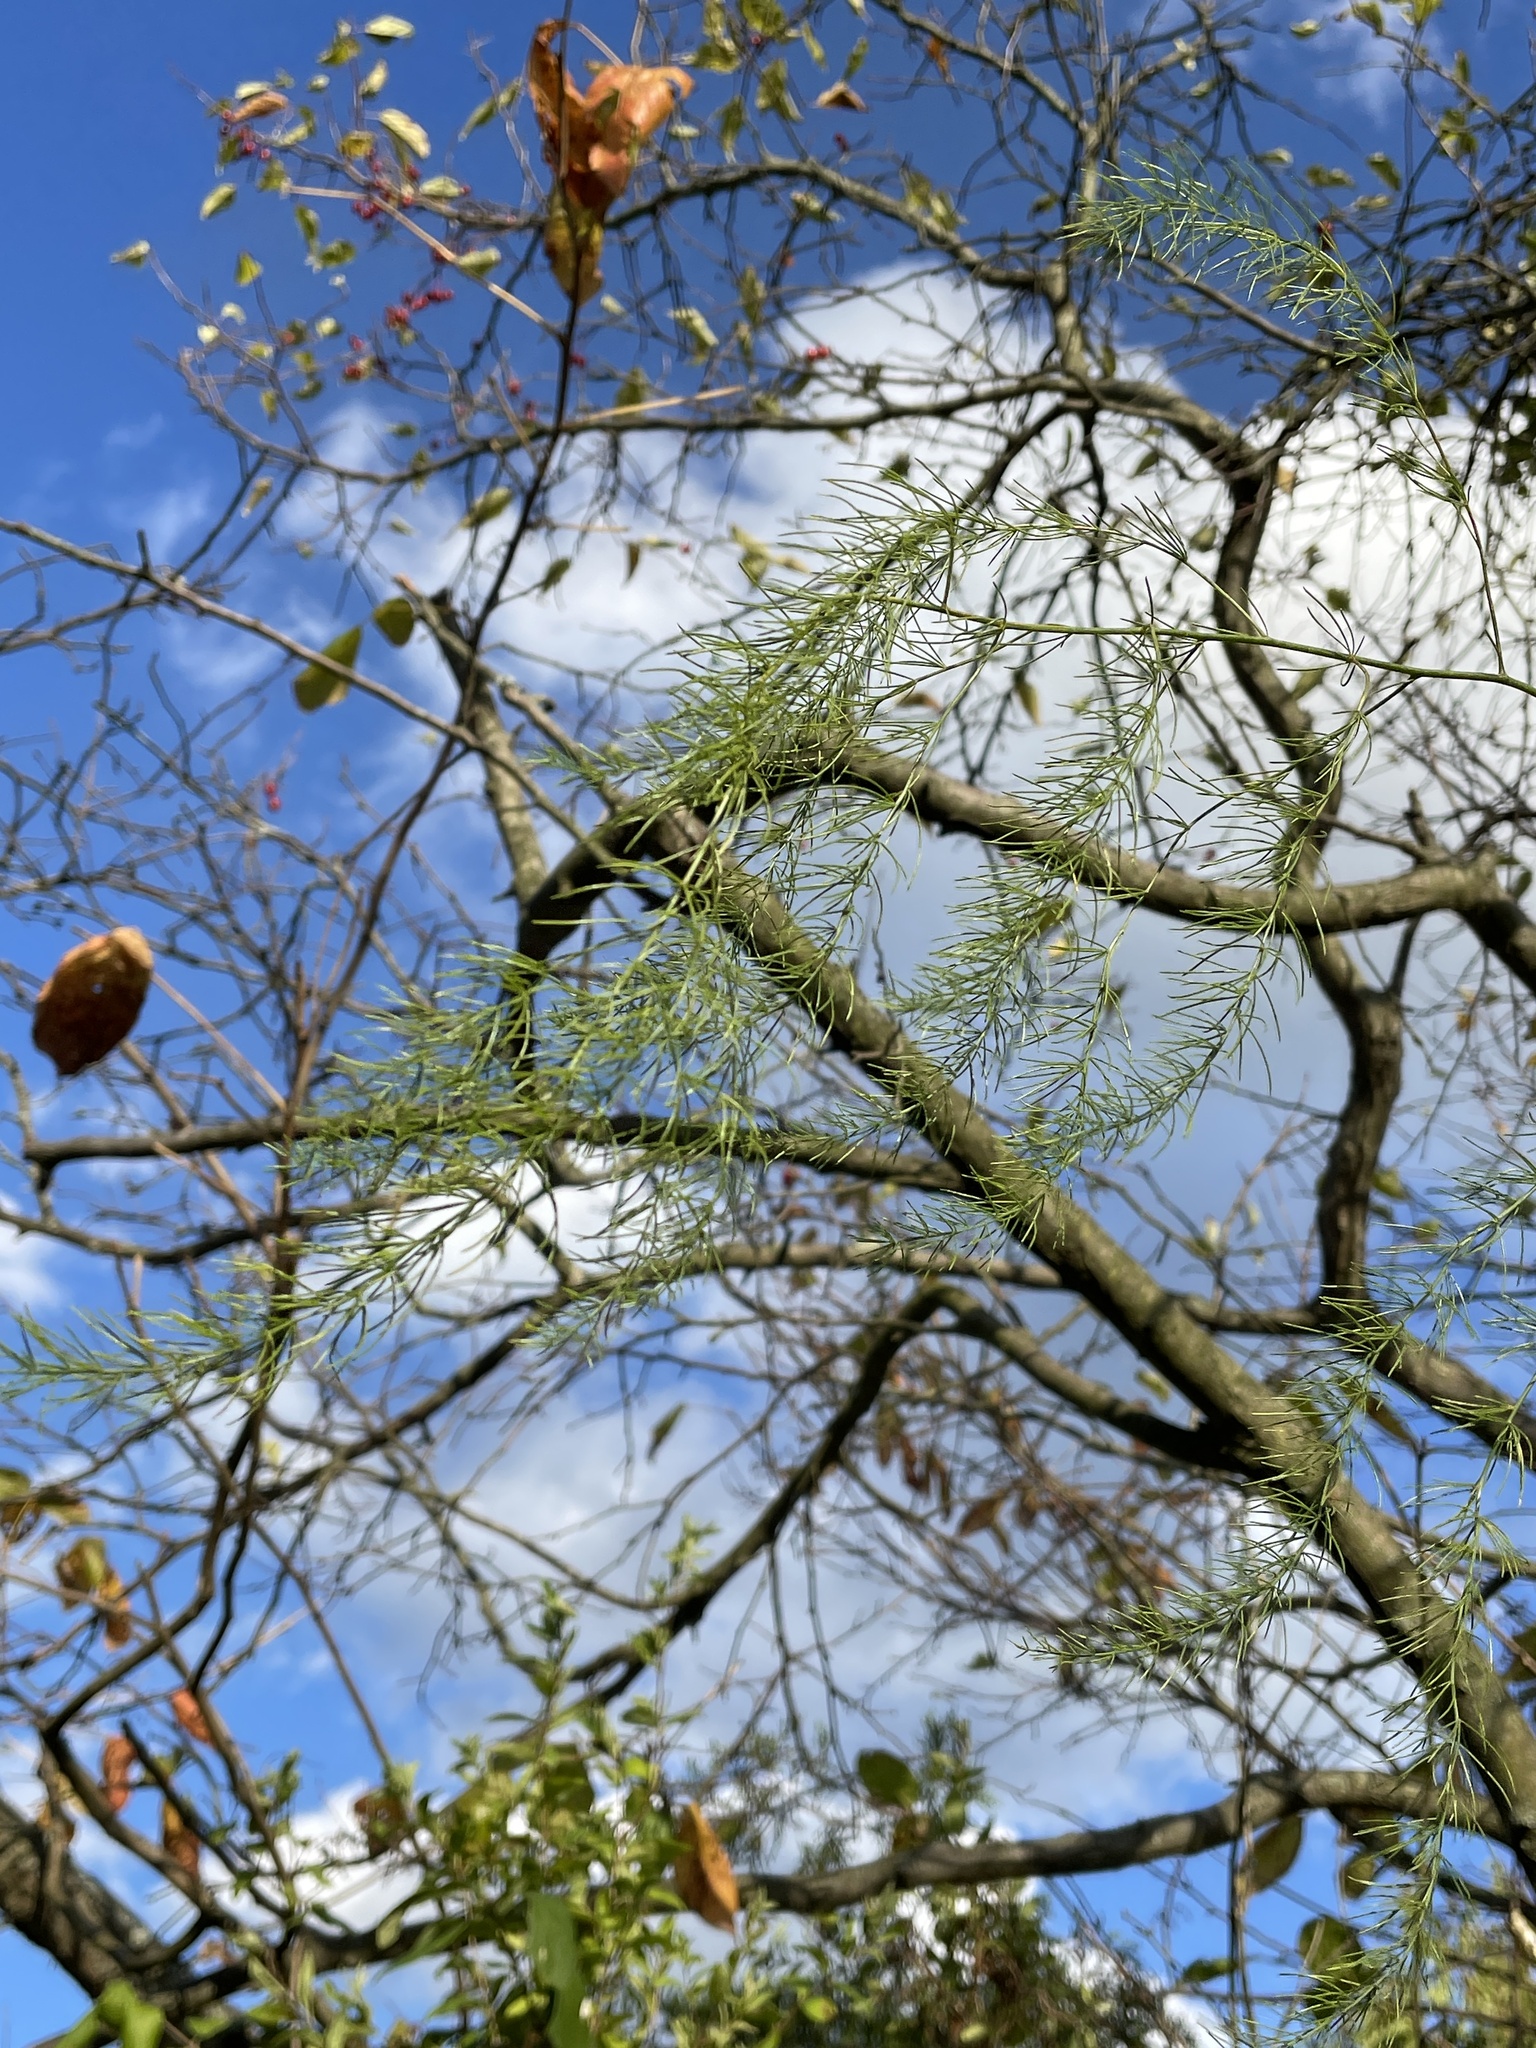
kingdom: Plantae
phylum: Tracheophyta
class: Liliopsida
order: Asparagales
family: Asparagaceae
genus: Asparagus
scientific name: Asparagus officinalis
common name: Garden asparagus
